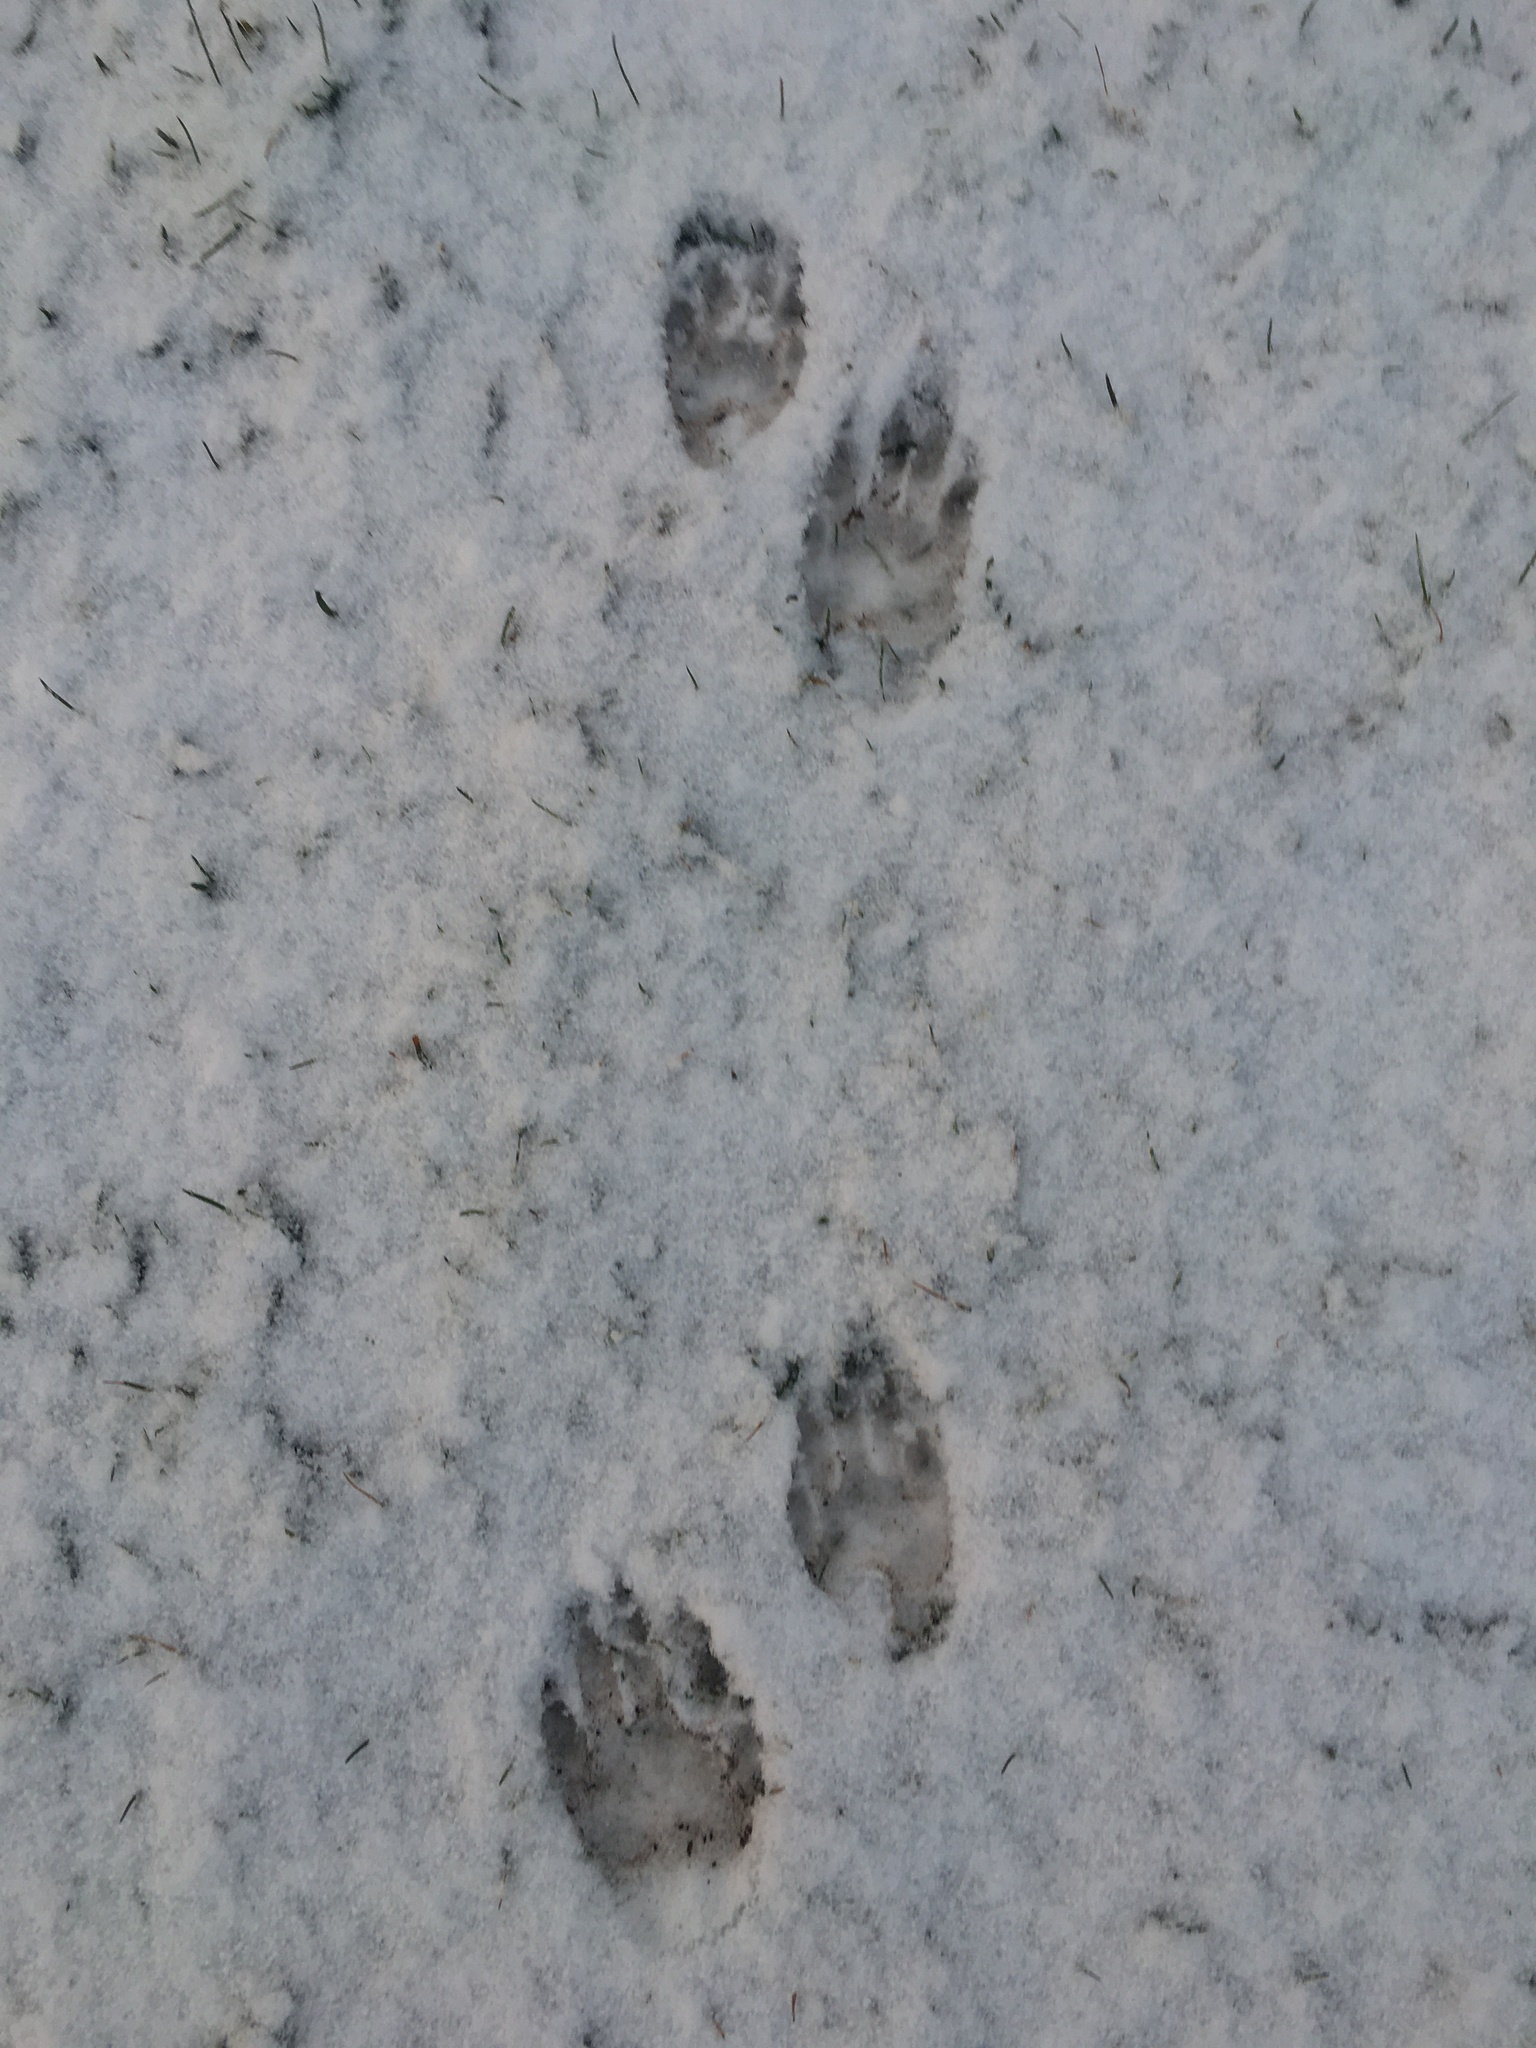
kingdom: Animalia
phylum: Chordata
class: Mammalia
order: Carnivora
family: Procyonidae
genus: Procyon
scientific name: Procyon lotor
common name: Raccoon
